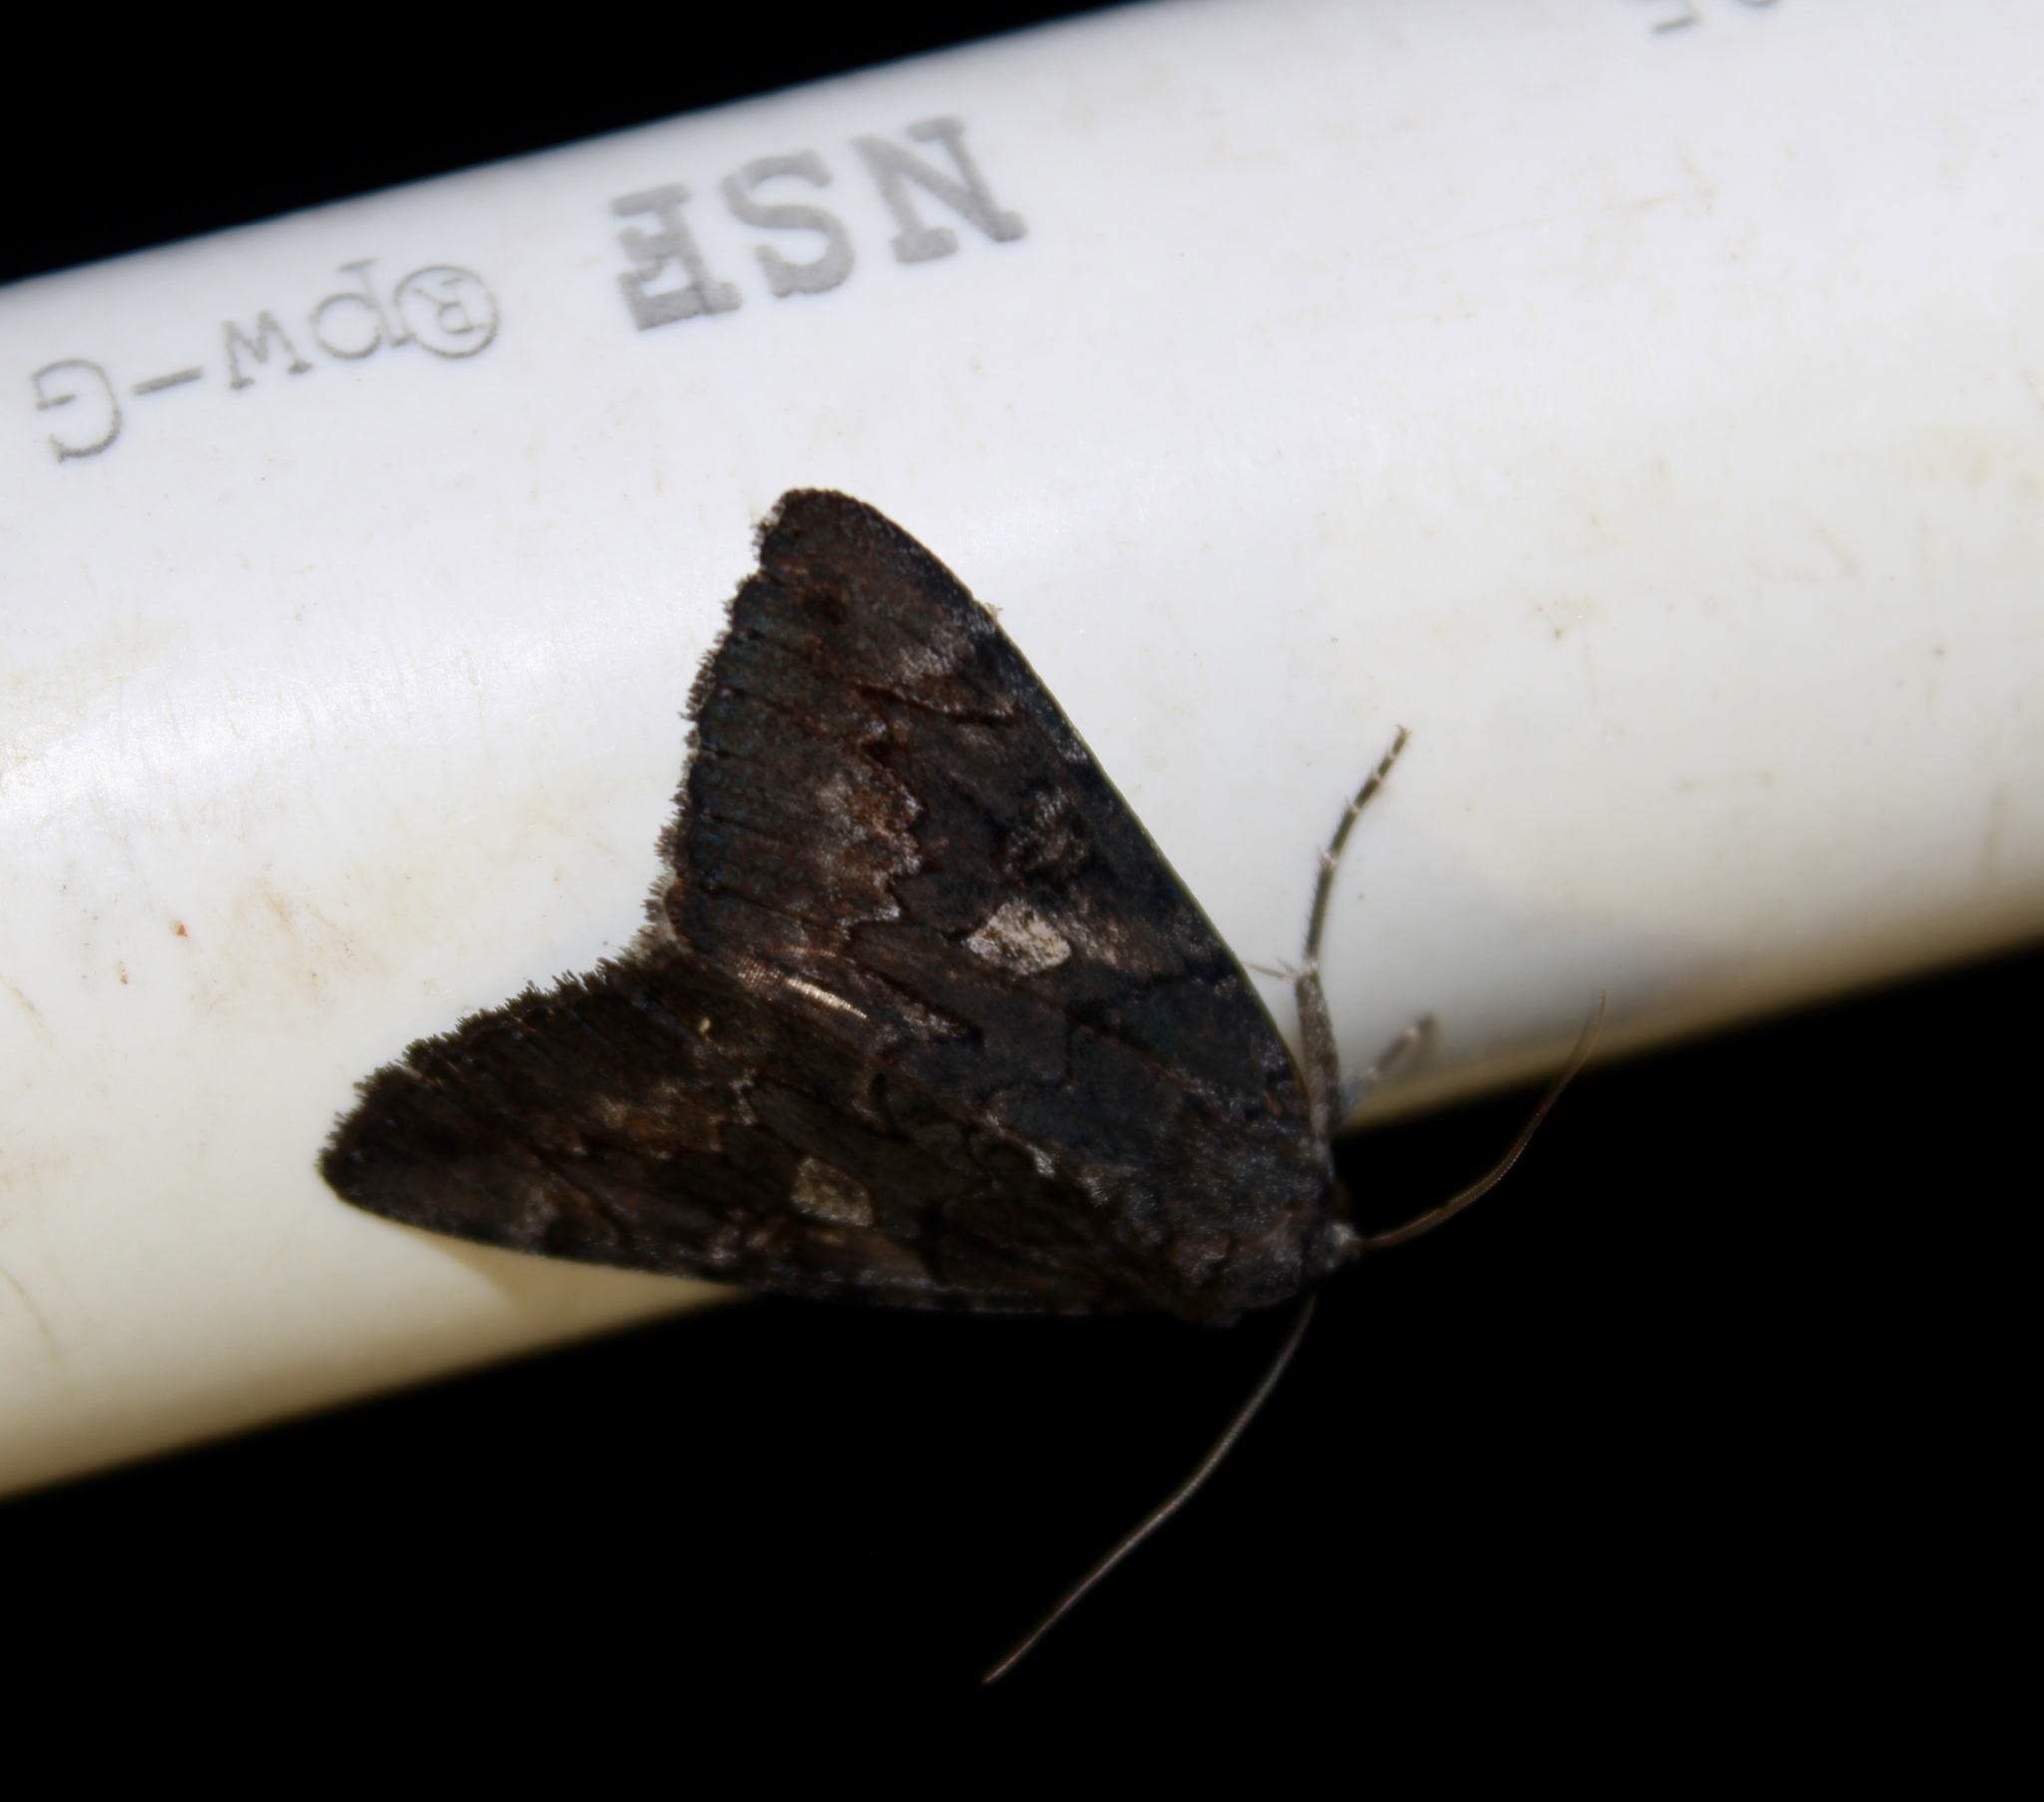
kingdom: Animalia
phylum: Arthropoda
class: Insecta
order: Lepidoptera
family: Erebidae
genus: Catocala
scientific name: Catocala antinympha
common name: Sweetfern underwing
